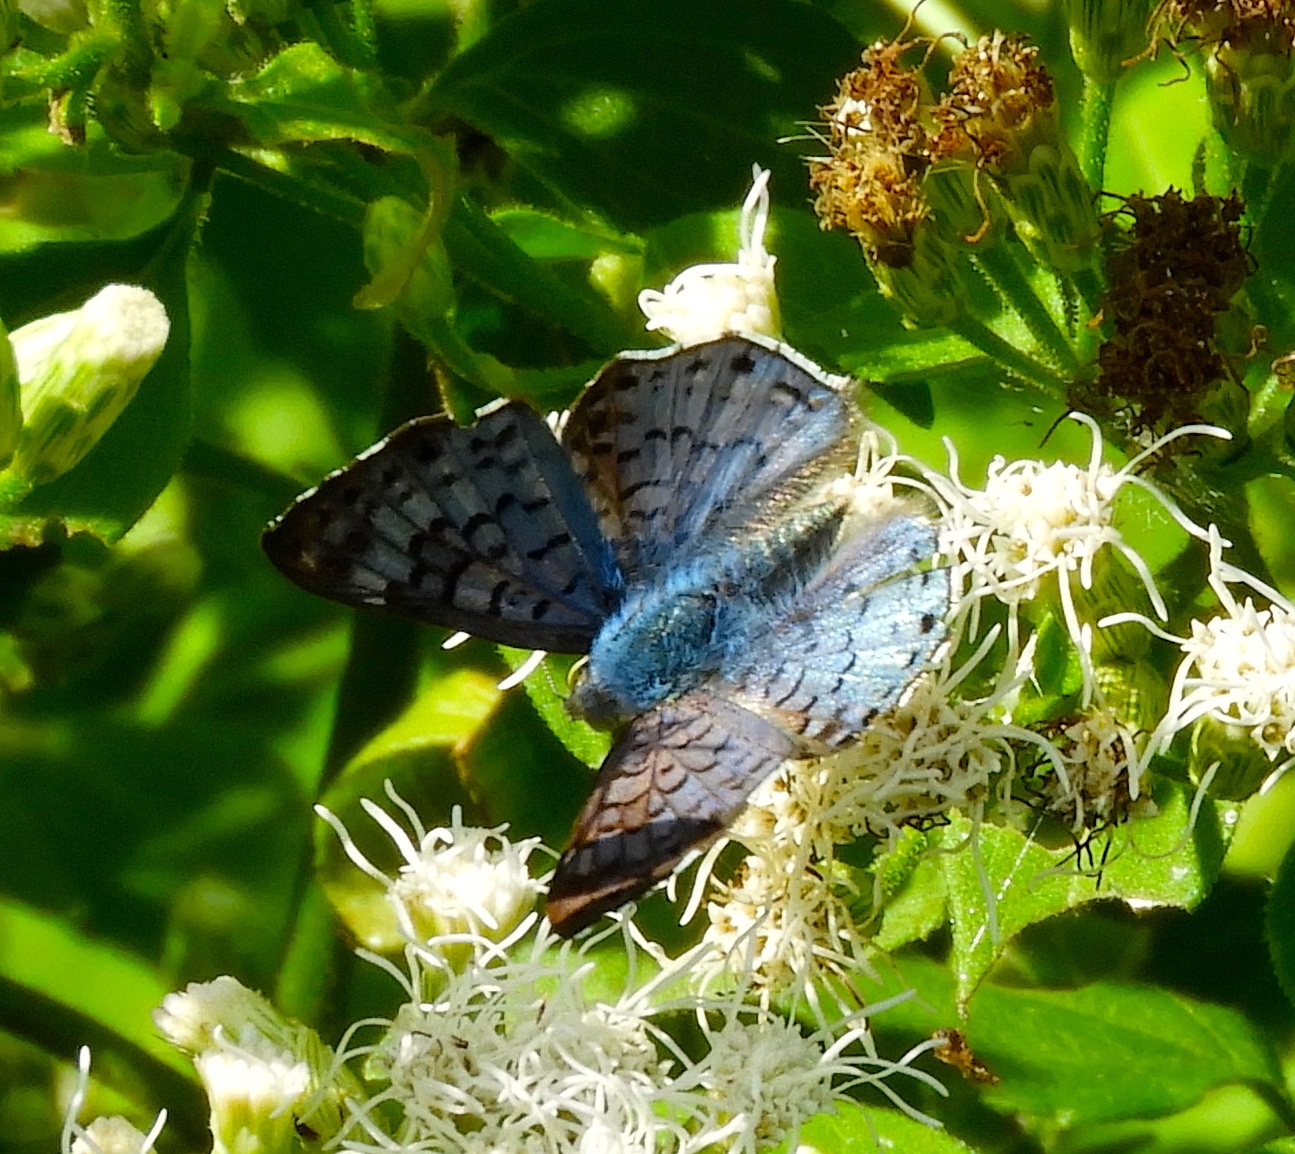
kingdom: Animalia
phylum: Arthropoda
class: Insecta
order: Lepidoptera
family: Riodinidae
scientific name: Riodinidae
